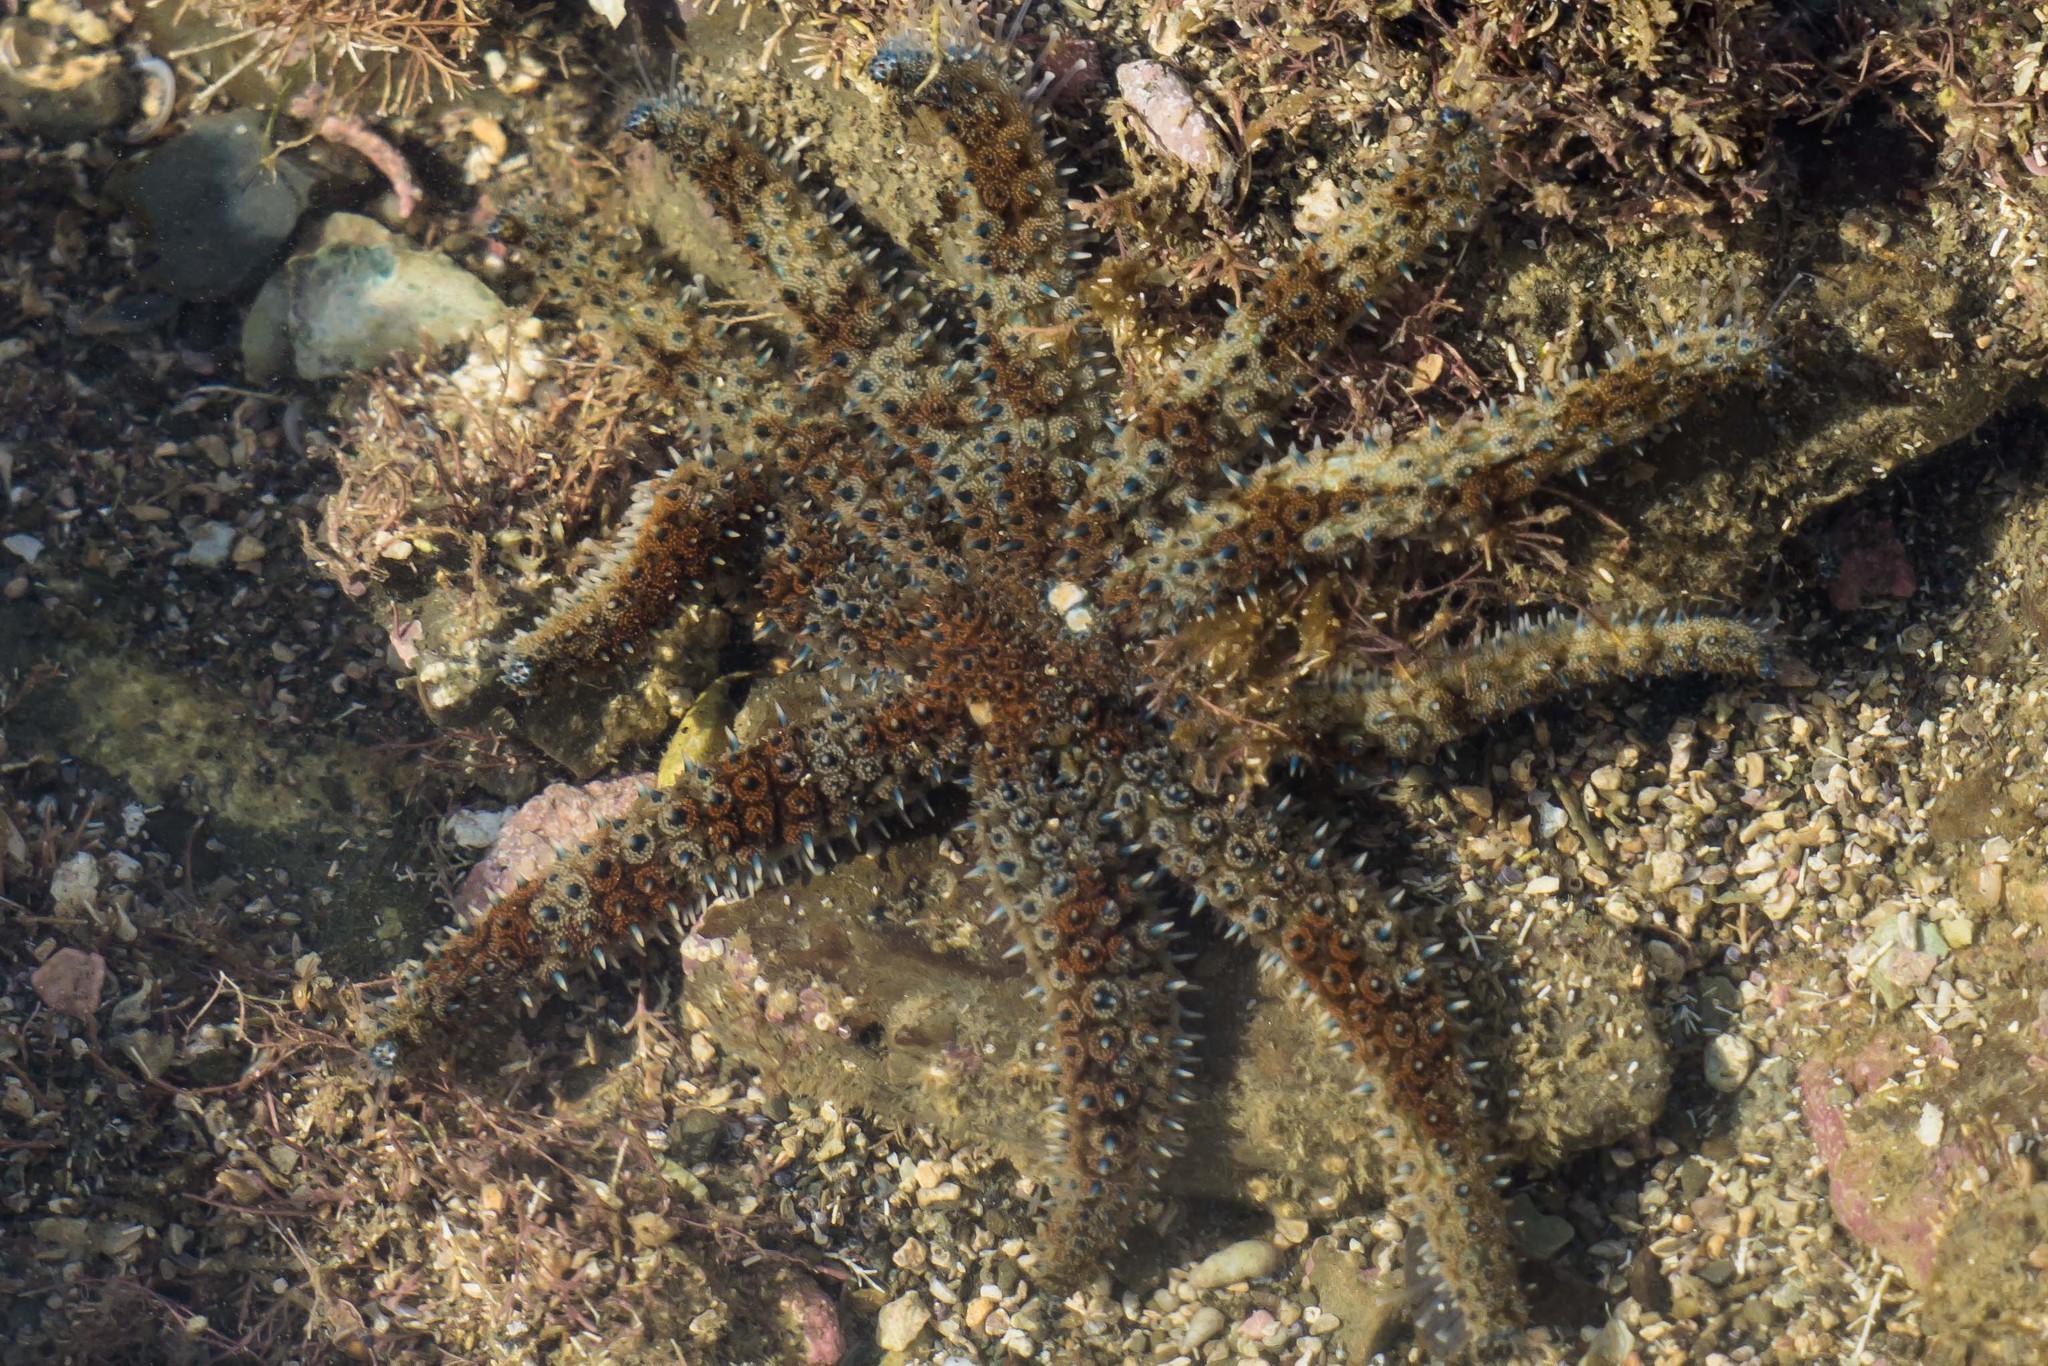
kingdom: Animalia
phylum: Echinodermata
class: Asteroidea
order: Forcipulatida
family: Asteriidae
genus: Coscinasterias
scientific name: Coscinasterias muricata
